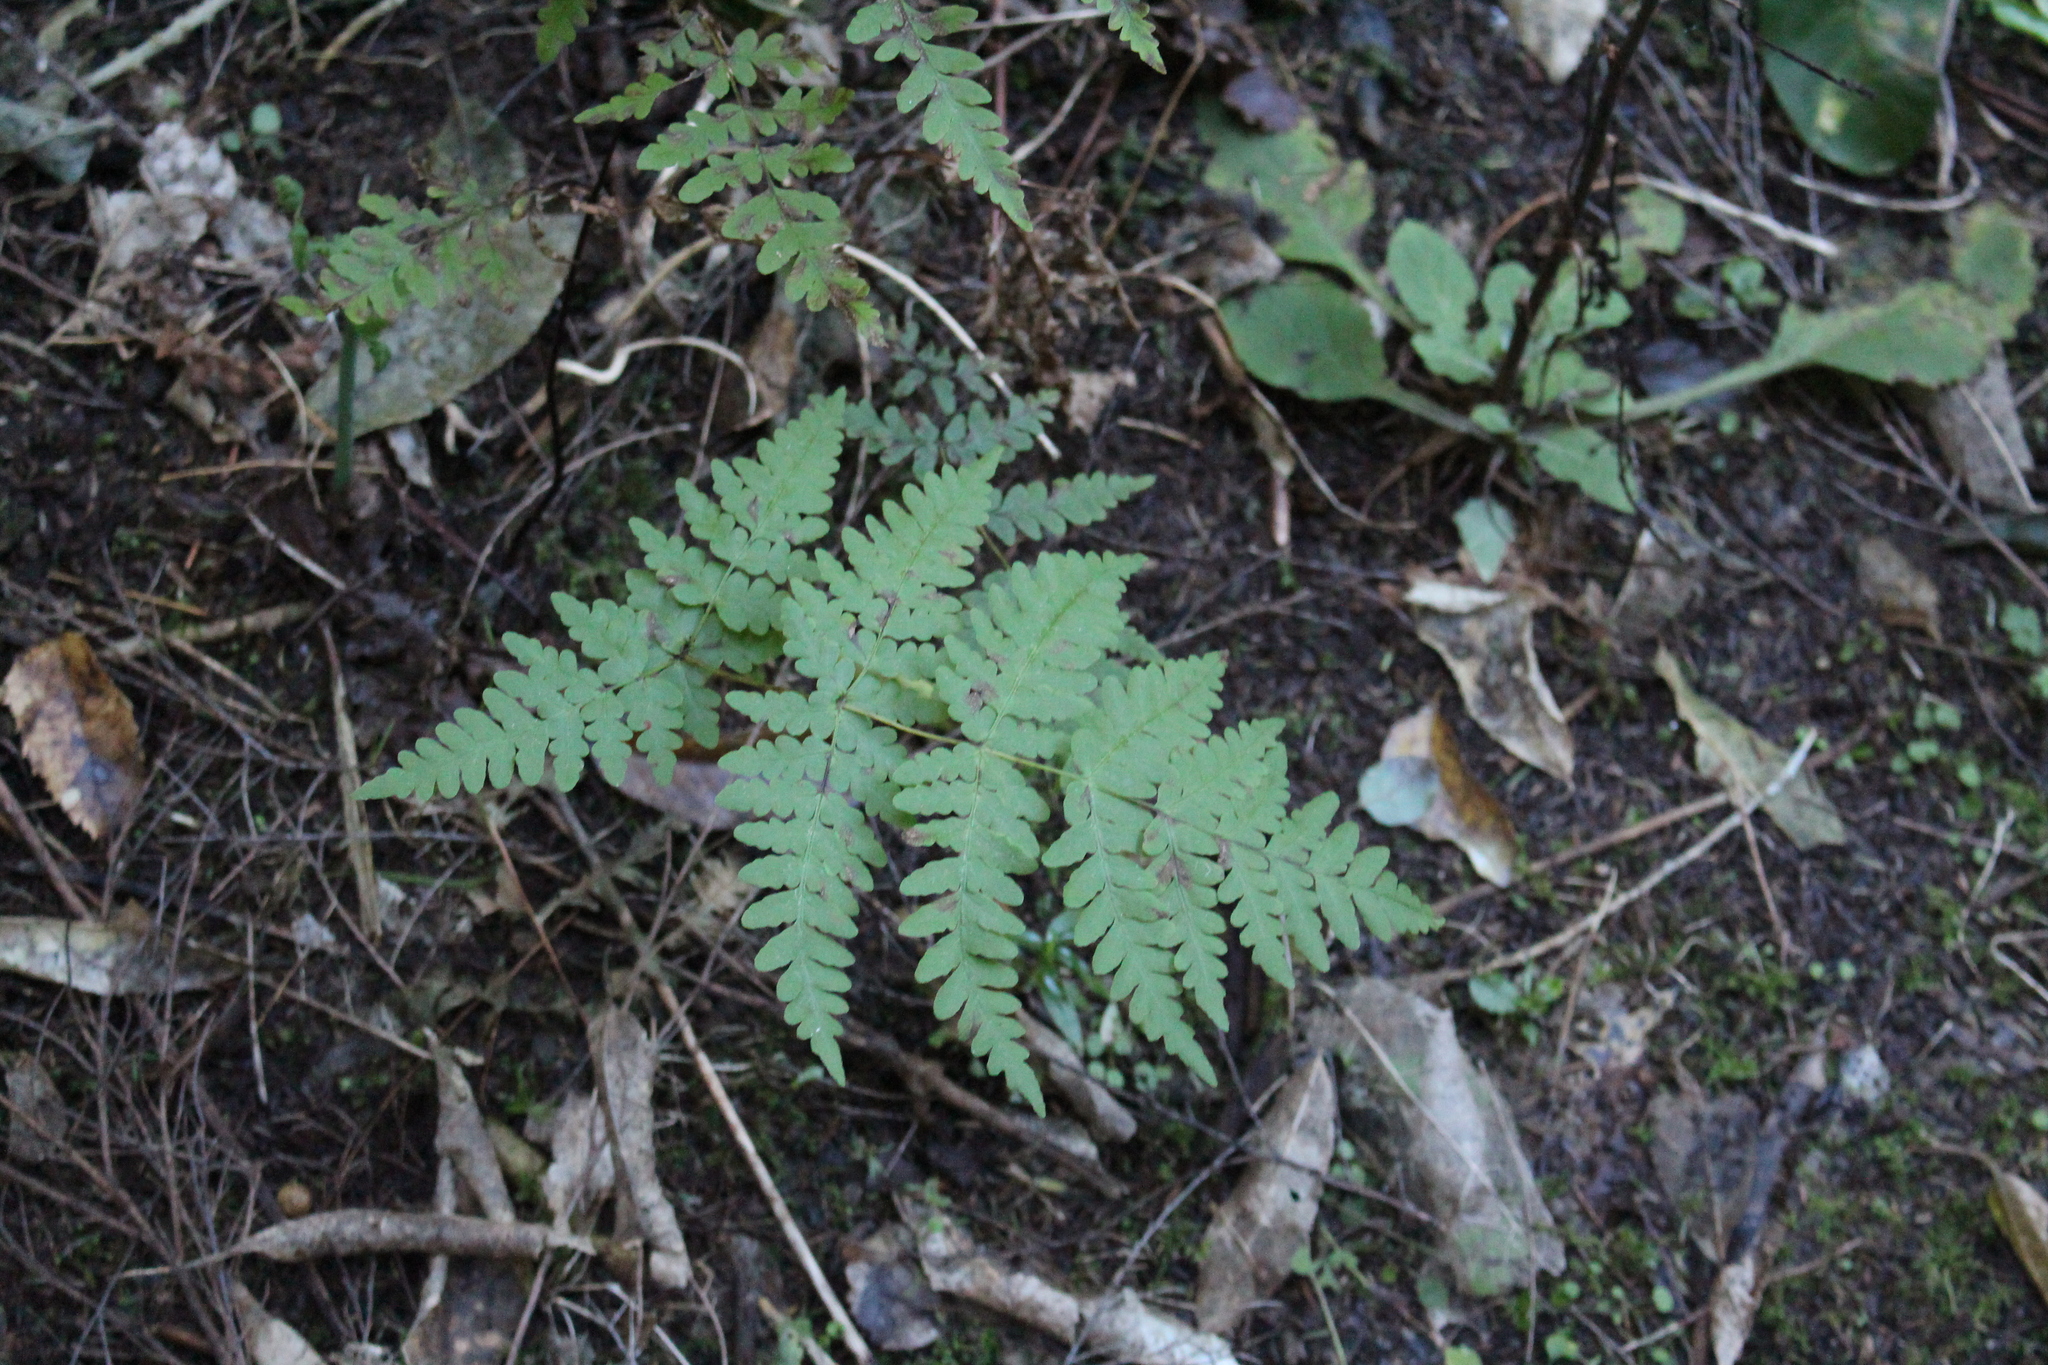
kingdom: Plantae
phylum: Tracheophyta
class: Polypodiopsida
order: Polypodiales
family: Dennstaedtiaceae
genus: Histiopteris
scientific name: Histiopteris incisa
